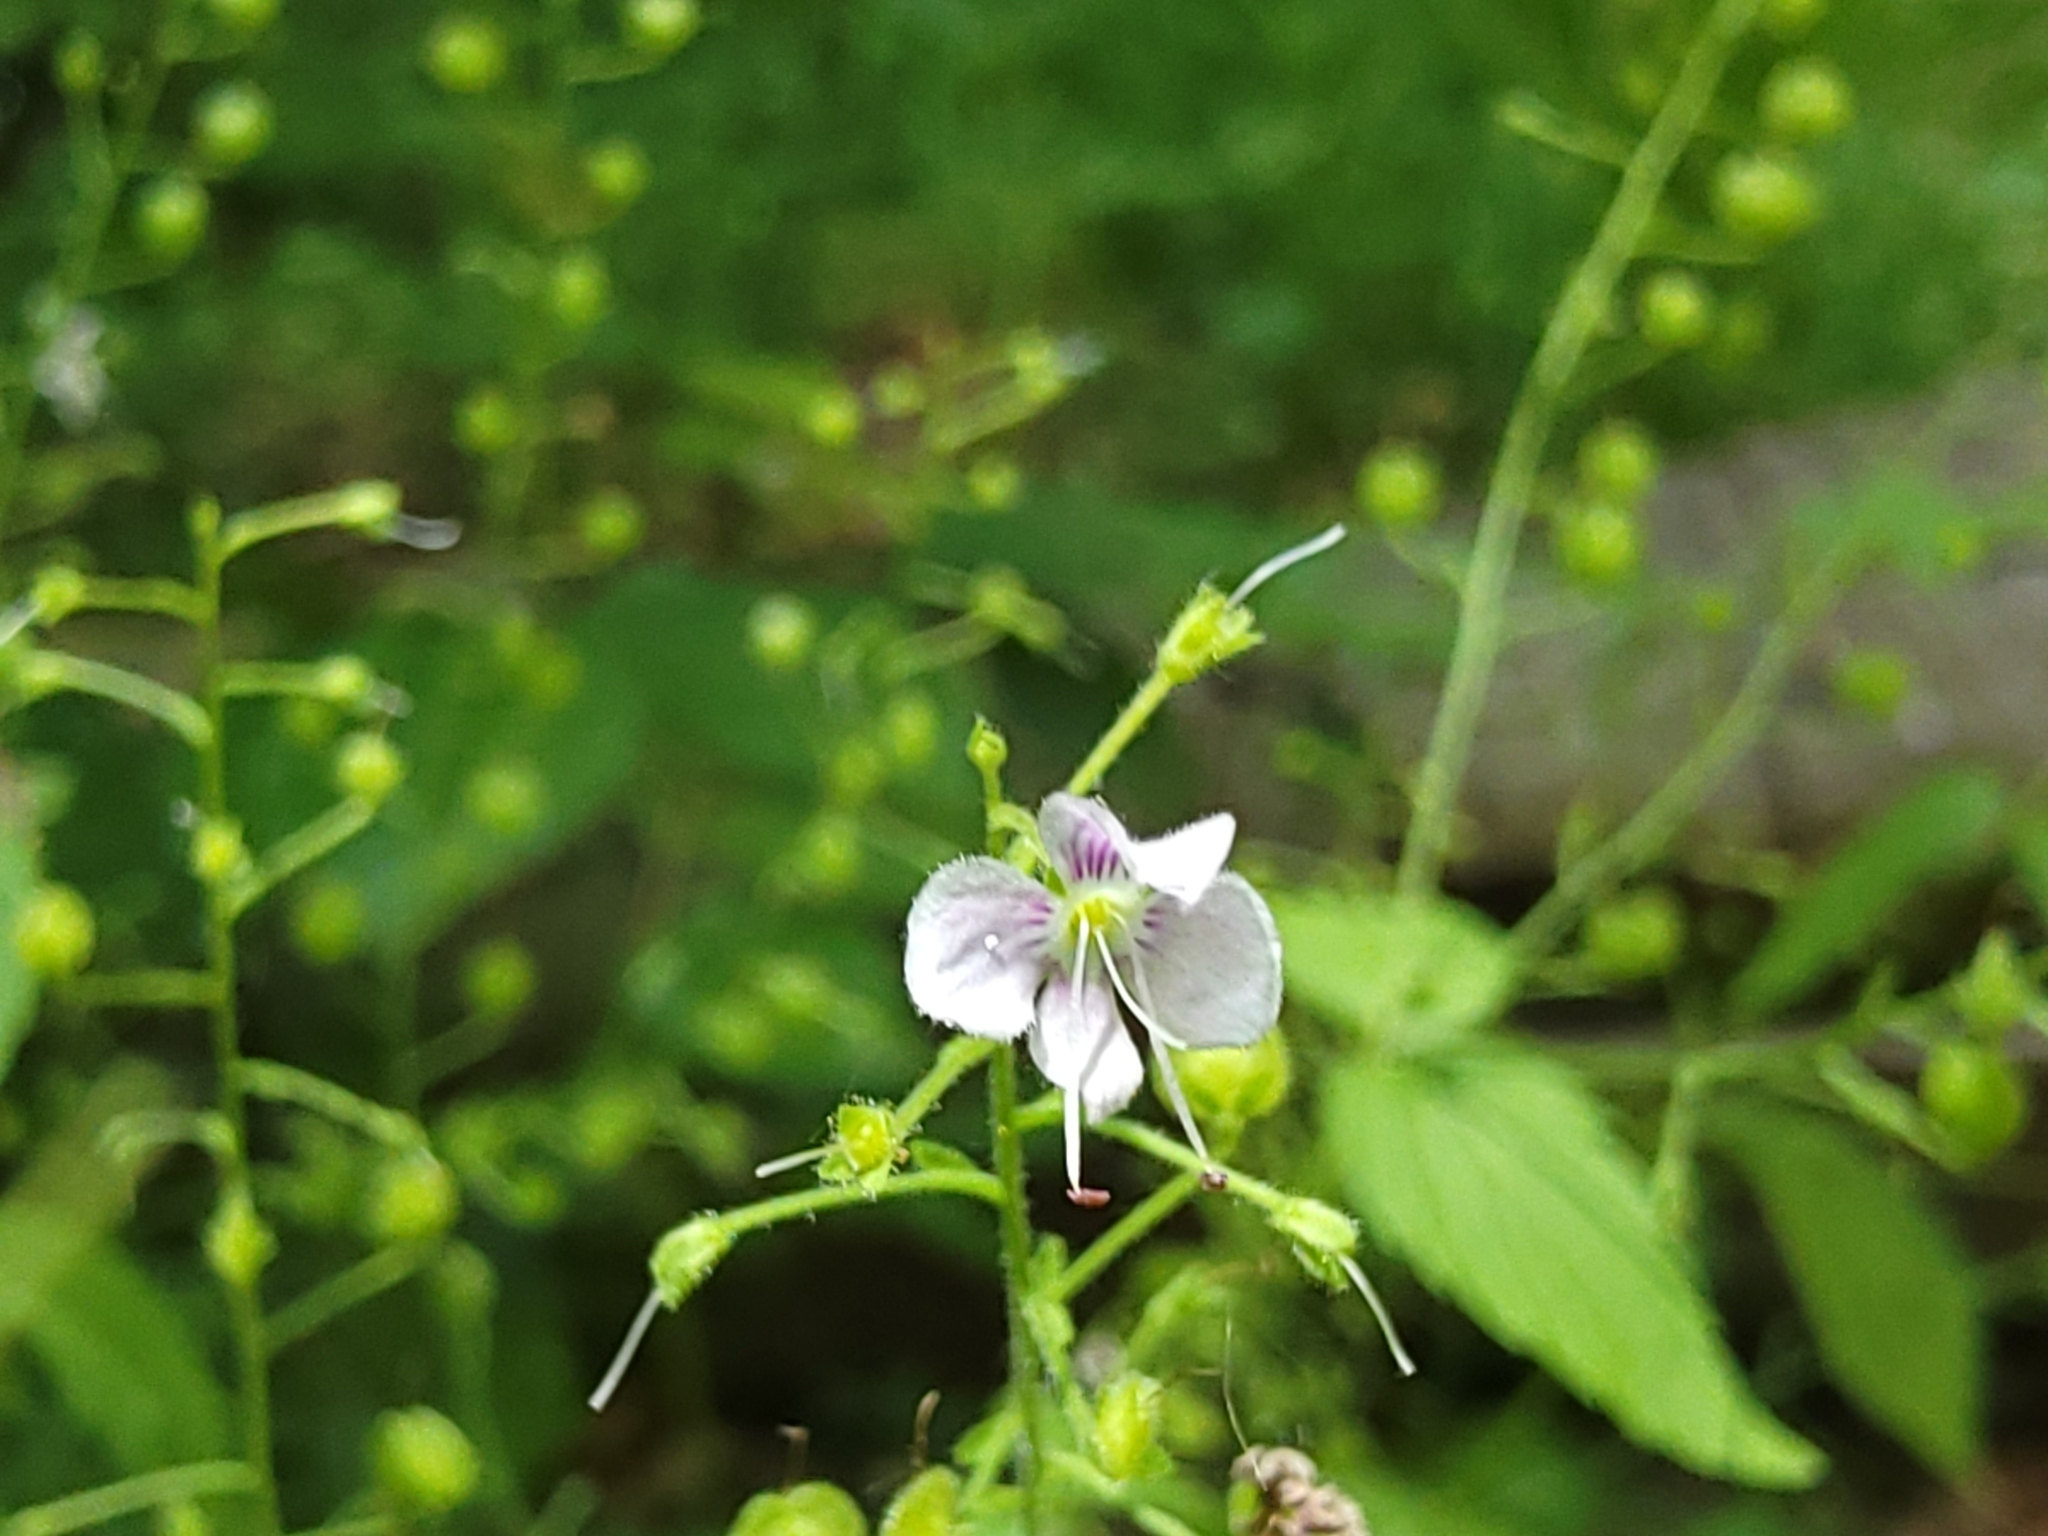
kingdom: Plantae
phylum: Tracheophyta
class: Magnoliopsida
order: Lamiales
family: Plantaginaceae
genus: Veronica
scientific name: Veronica urticifolia
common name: Nettle-leaf speedwell
